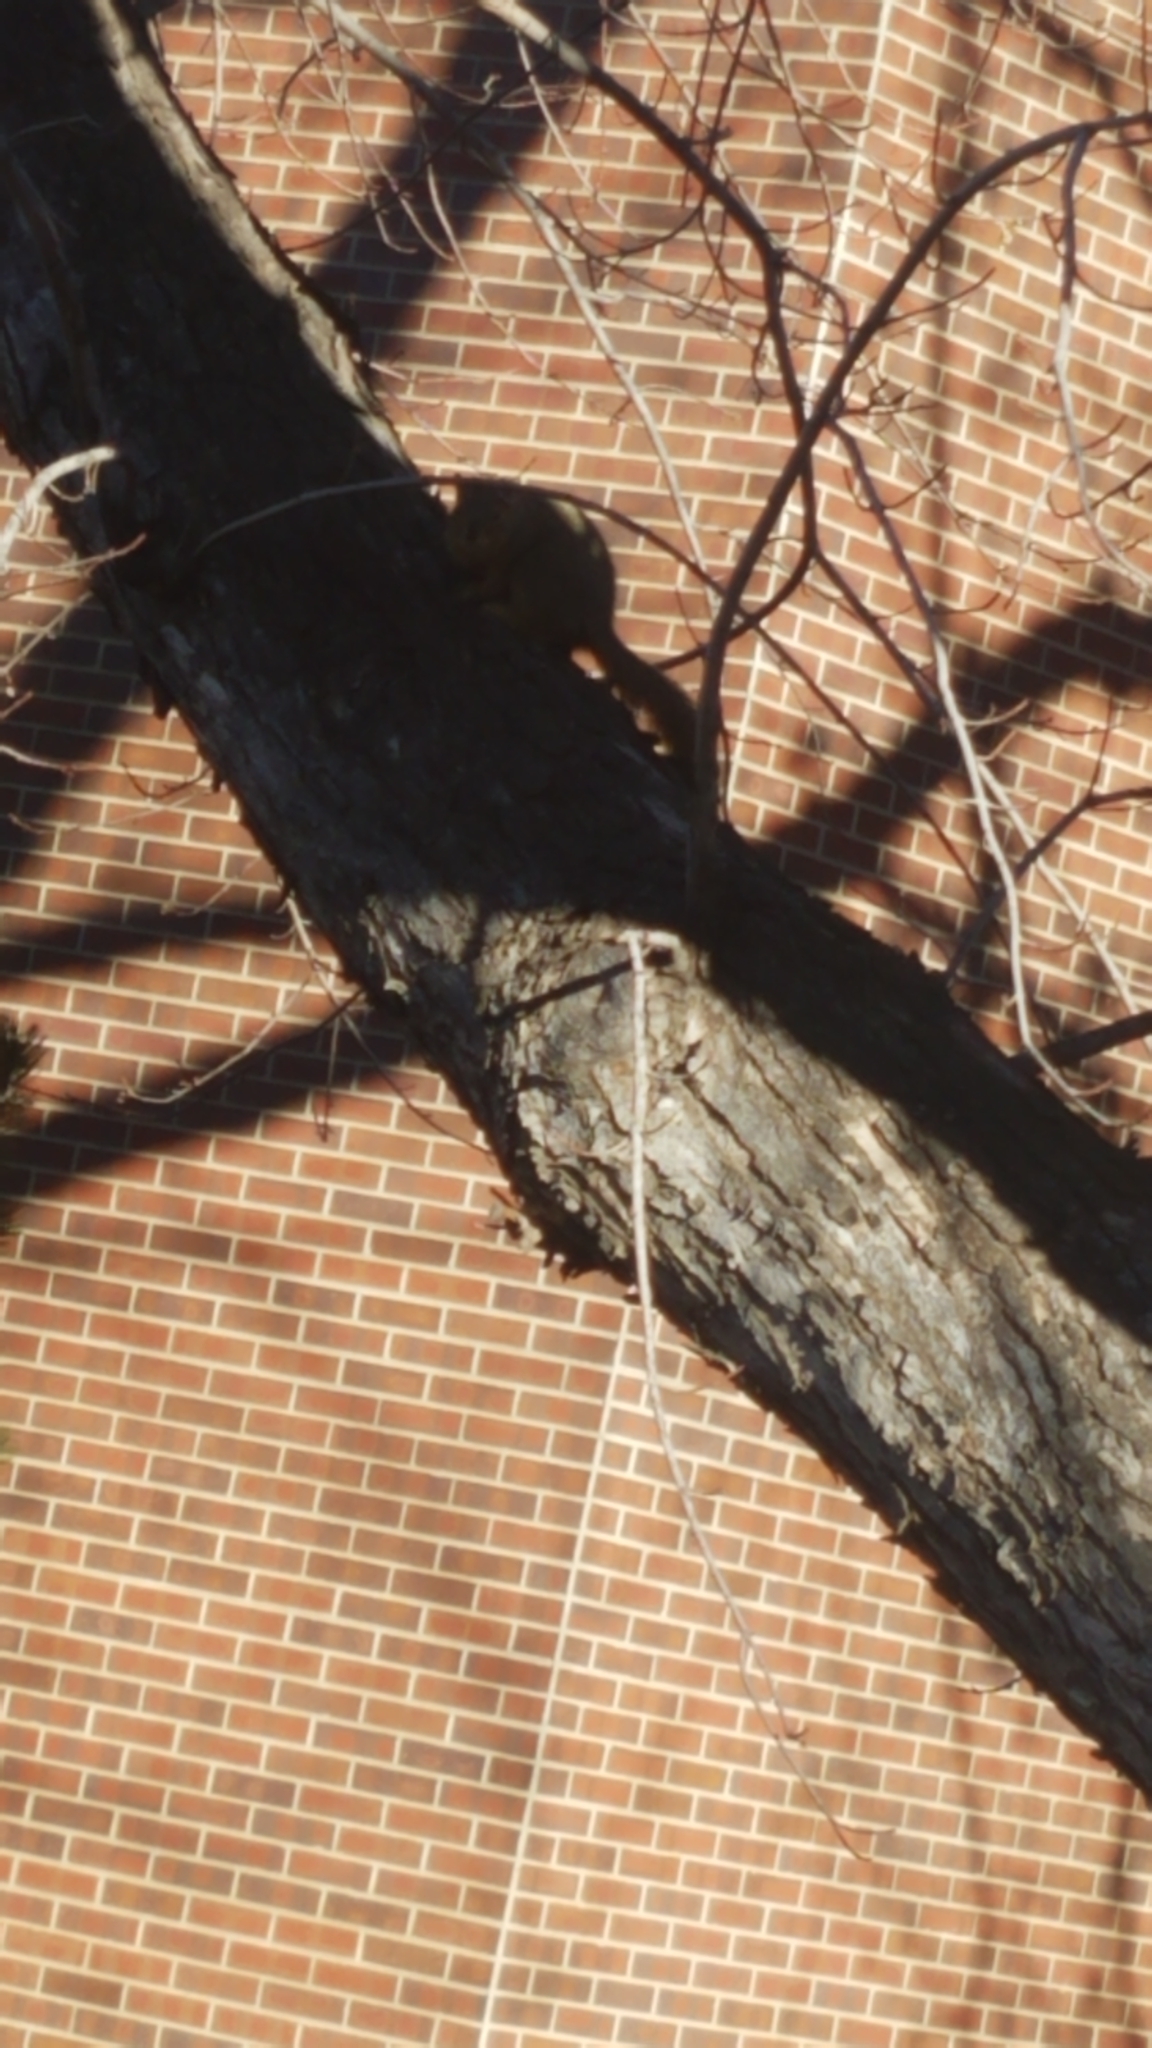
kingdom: Animalia
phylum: Chordata
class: Mammalia
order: Rodentia
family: Sciuridae
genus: Sciurus
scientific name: Sciurus niger
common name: Fox squirrel
